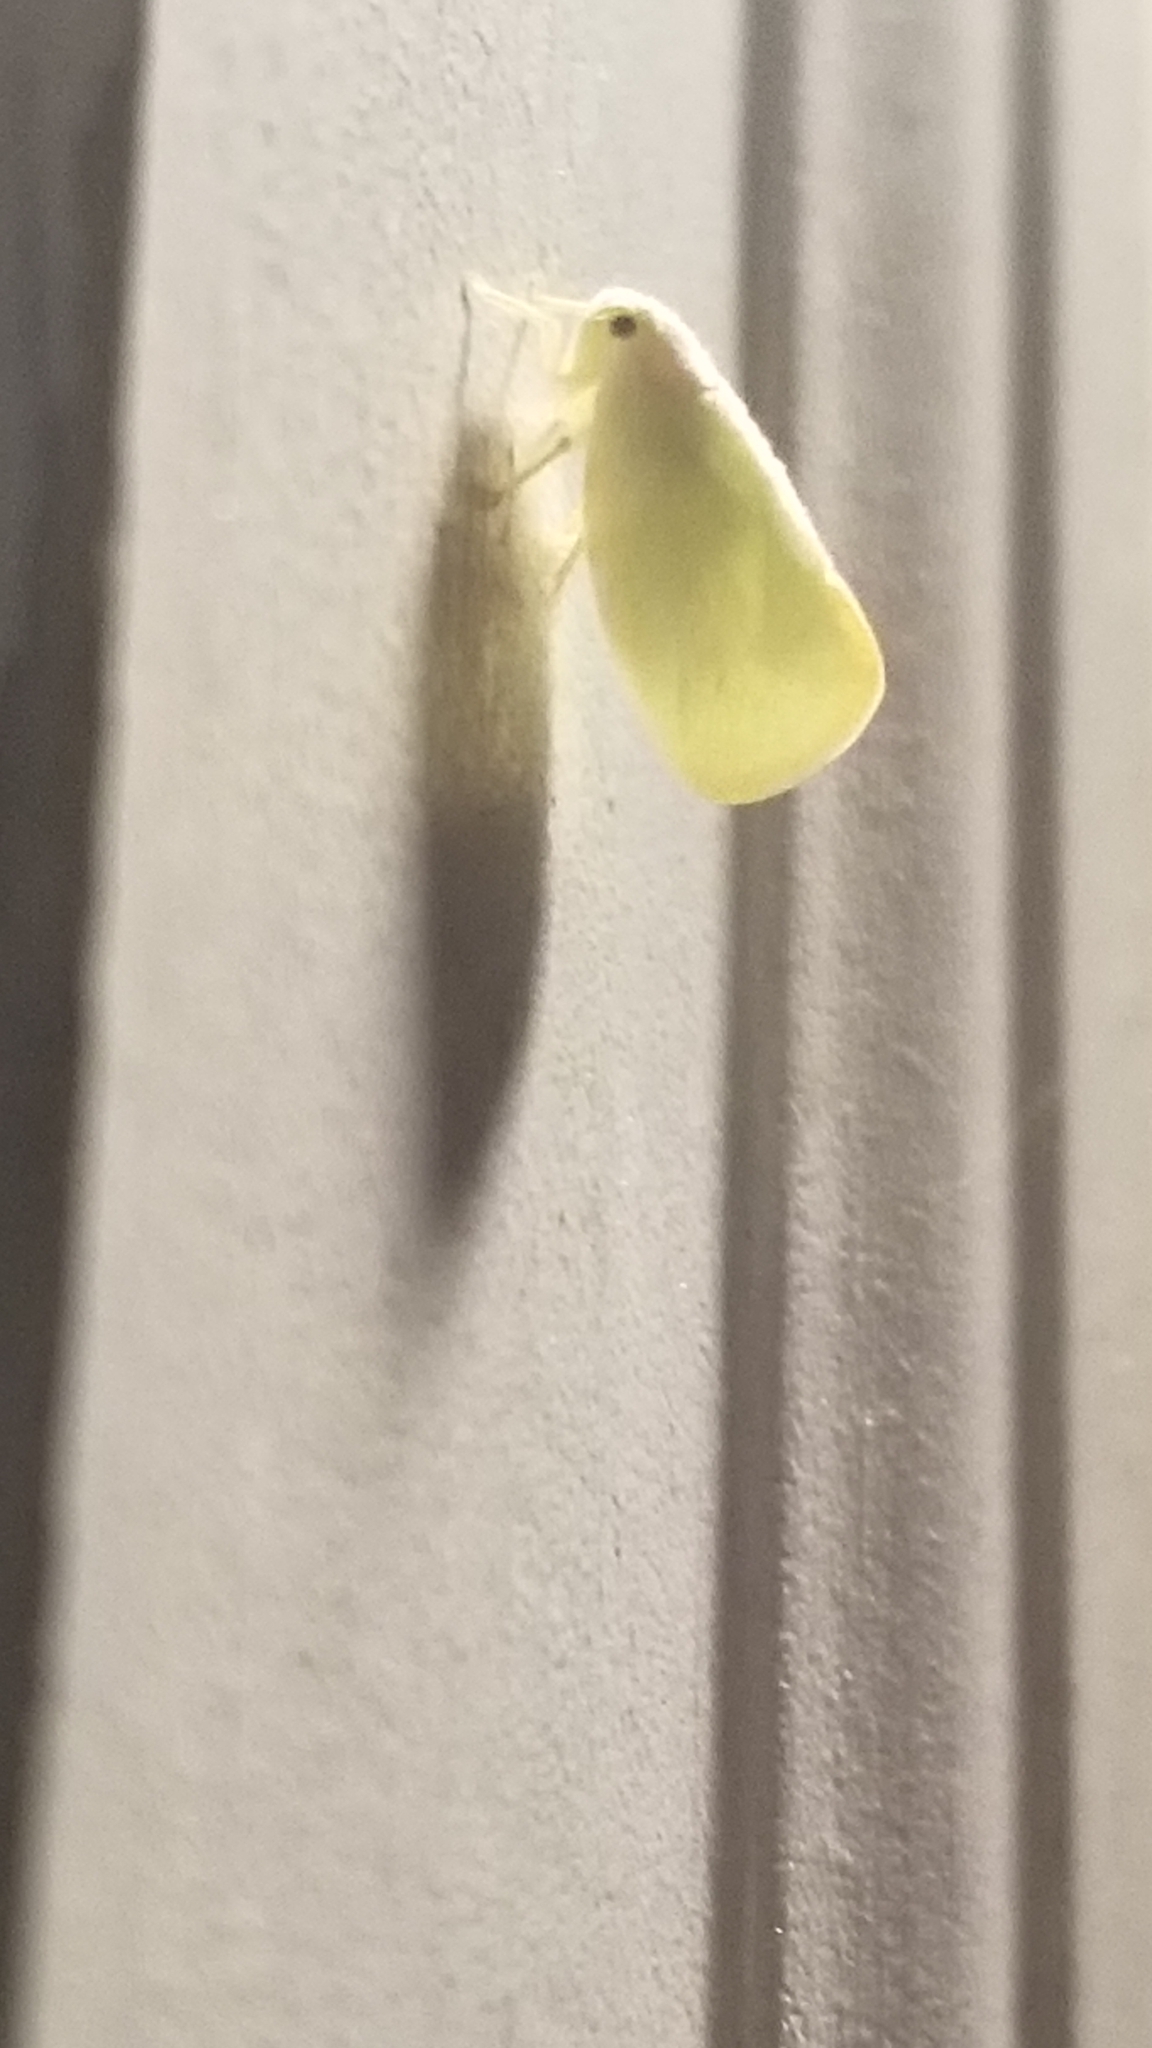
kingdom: Animalia
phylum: Arthropoda
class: Insecta
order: Hemiptera
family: Flatidae
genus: Ormenoides
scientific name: Ormenoides venusta
